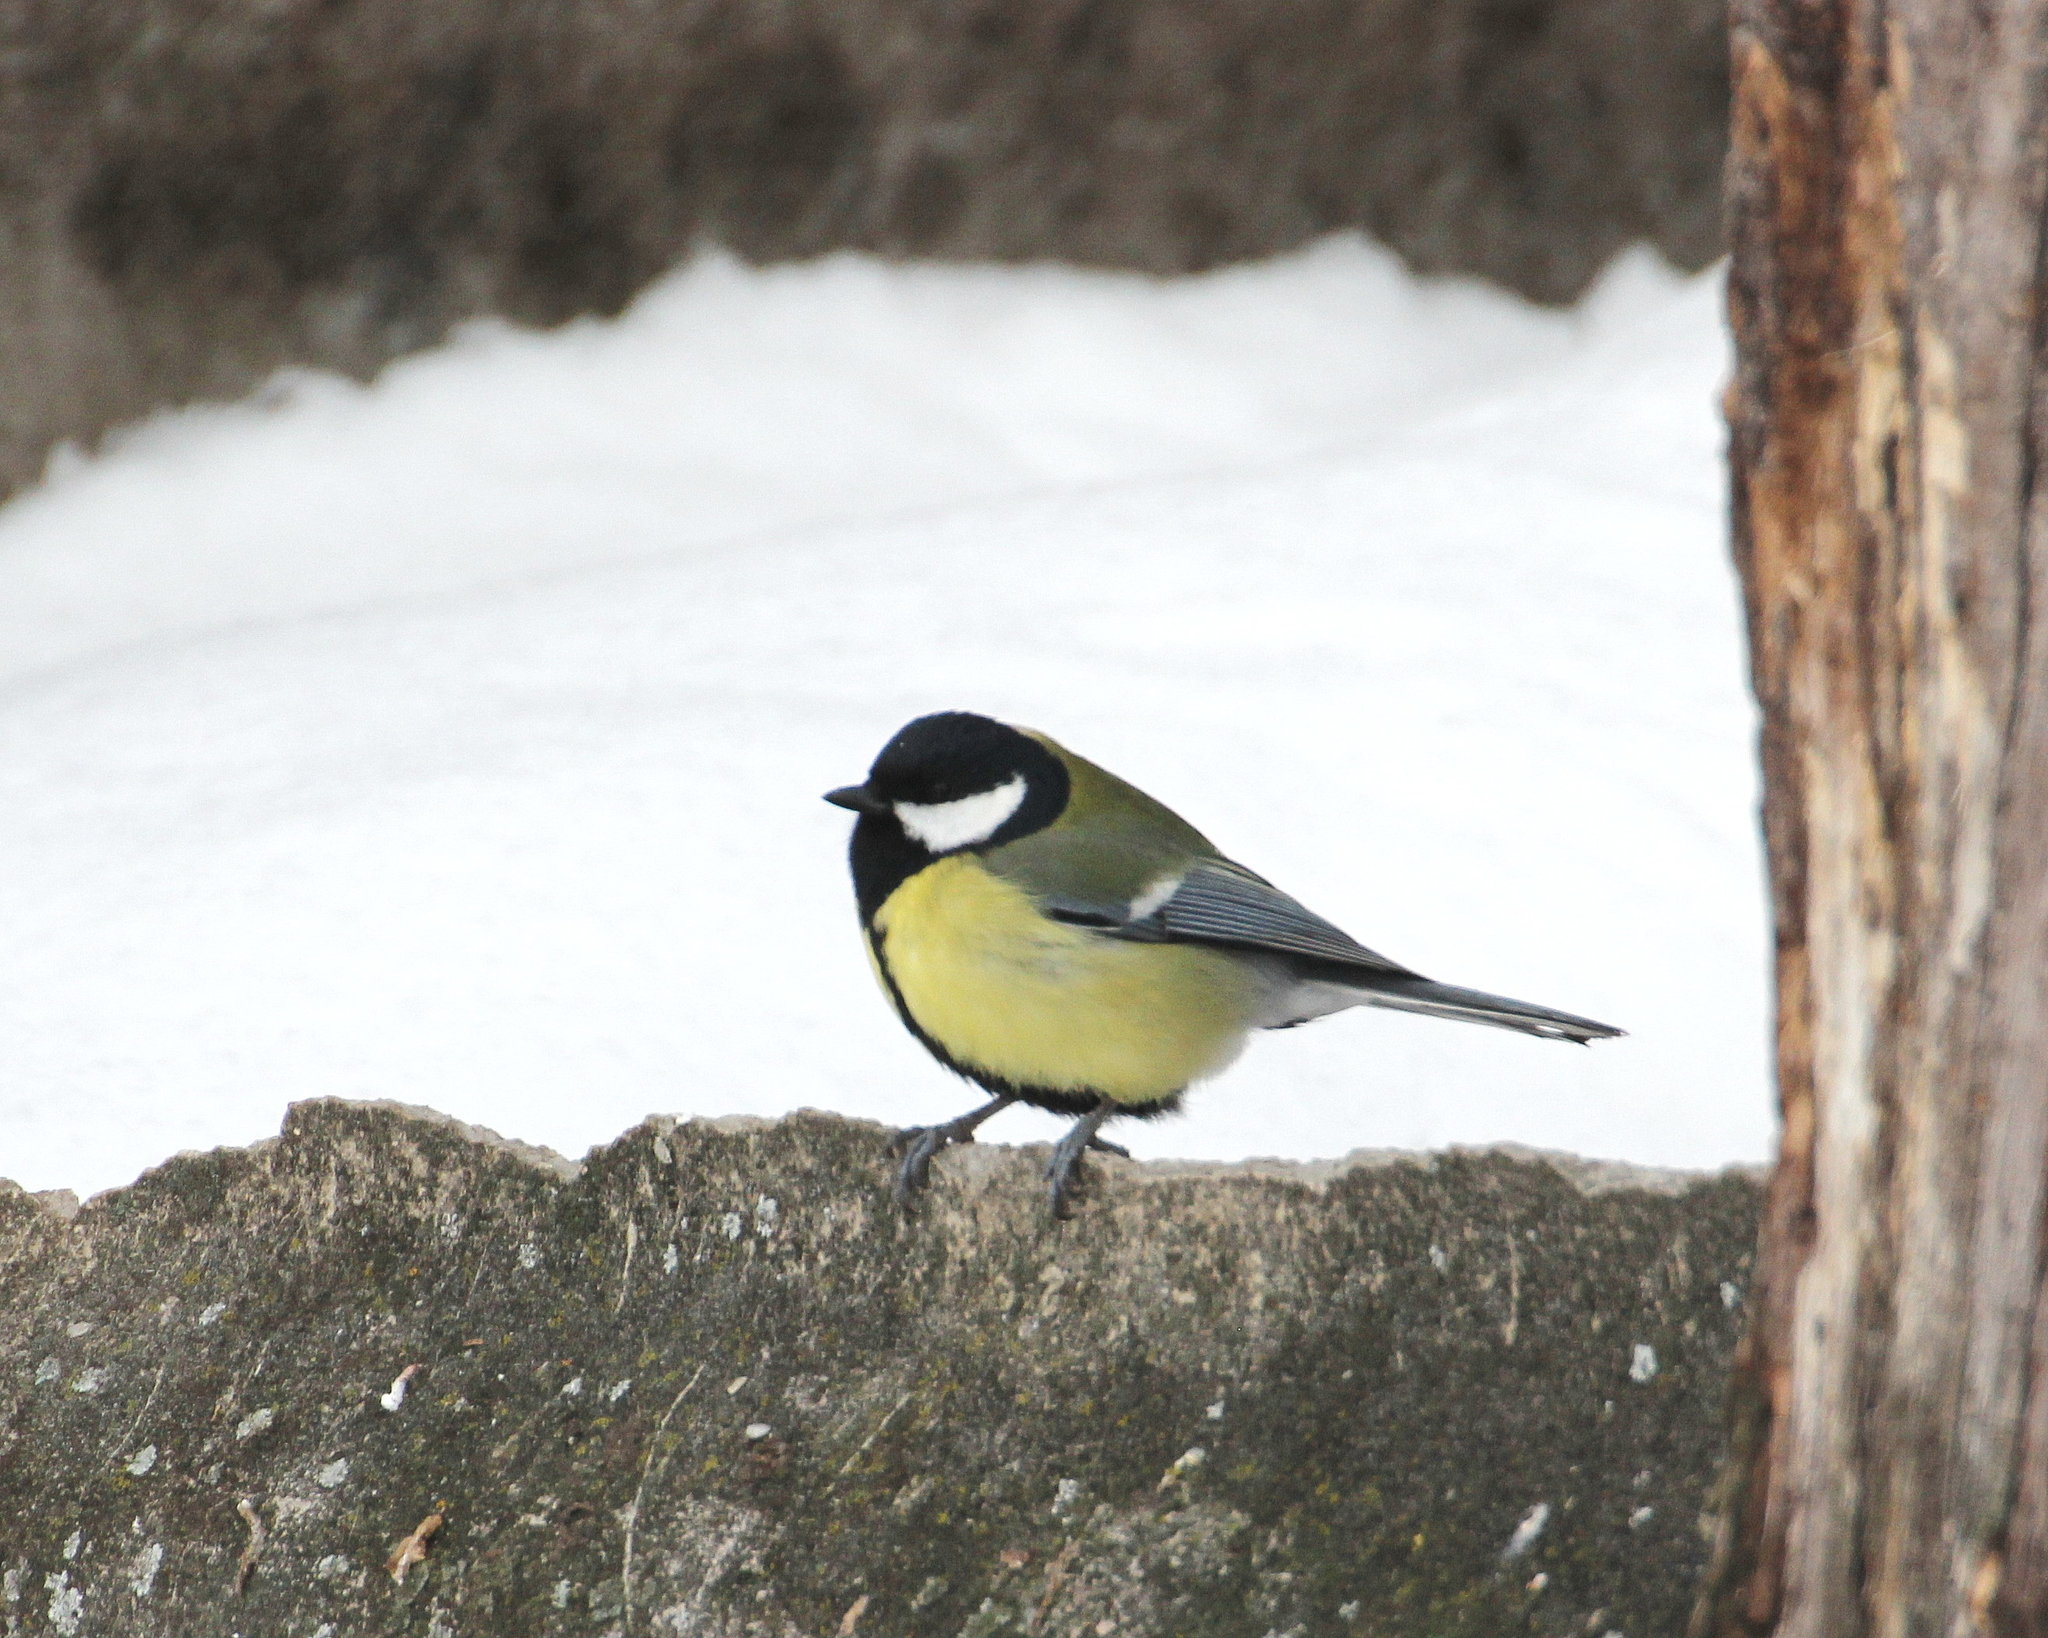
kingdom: Animalia
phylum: Chordata
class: Aves
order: Passeriformes
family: Paridae
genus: Parus
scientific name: Parus major
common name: Great tit
